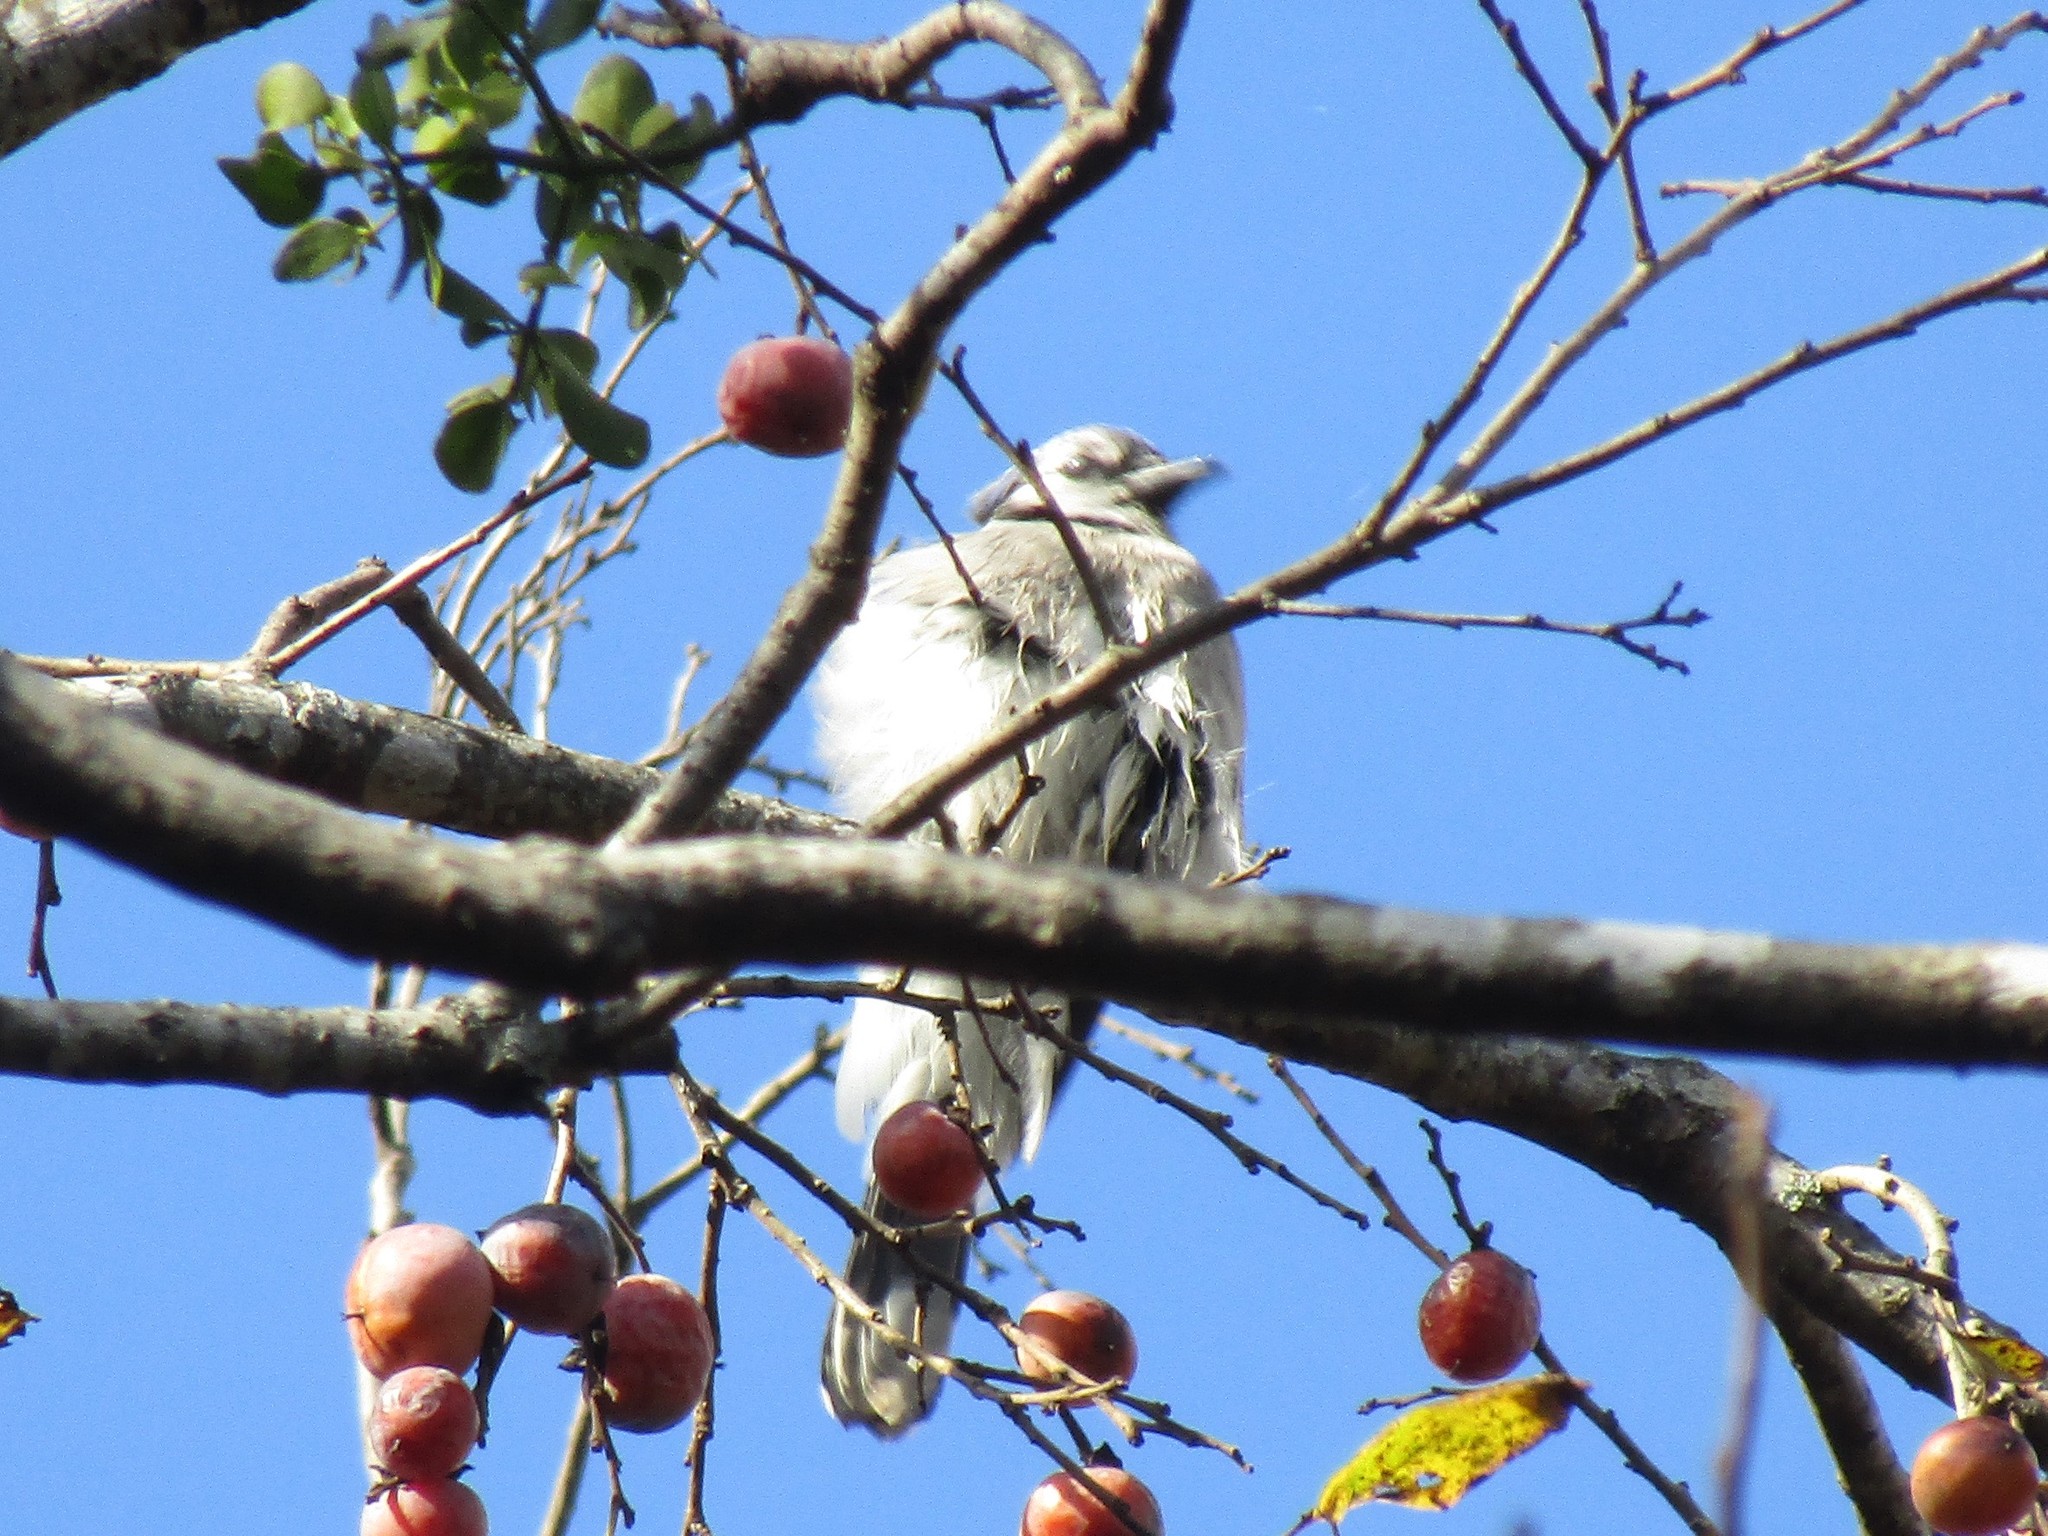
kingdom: Animalia
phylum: Chordata
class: Aves
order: Passeriformes
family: Corvidae
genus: Cyanocitta
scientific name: Cyanocitta cristata
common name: Blue jay
